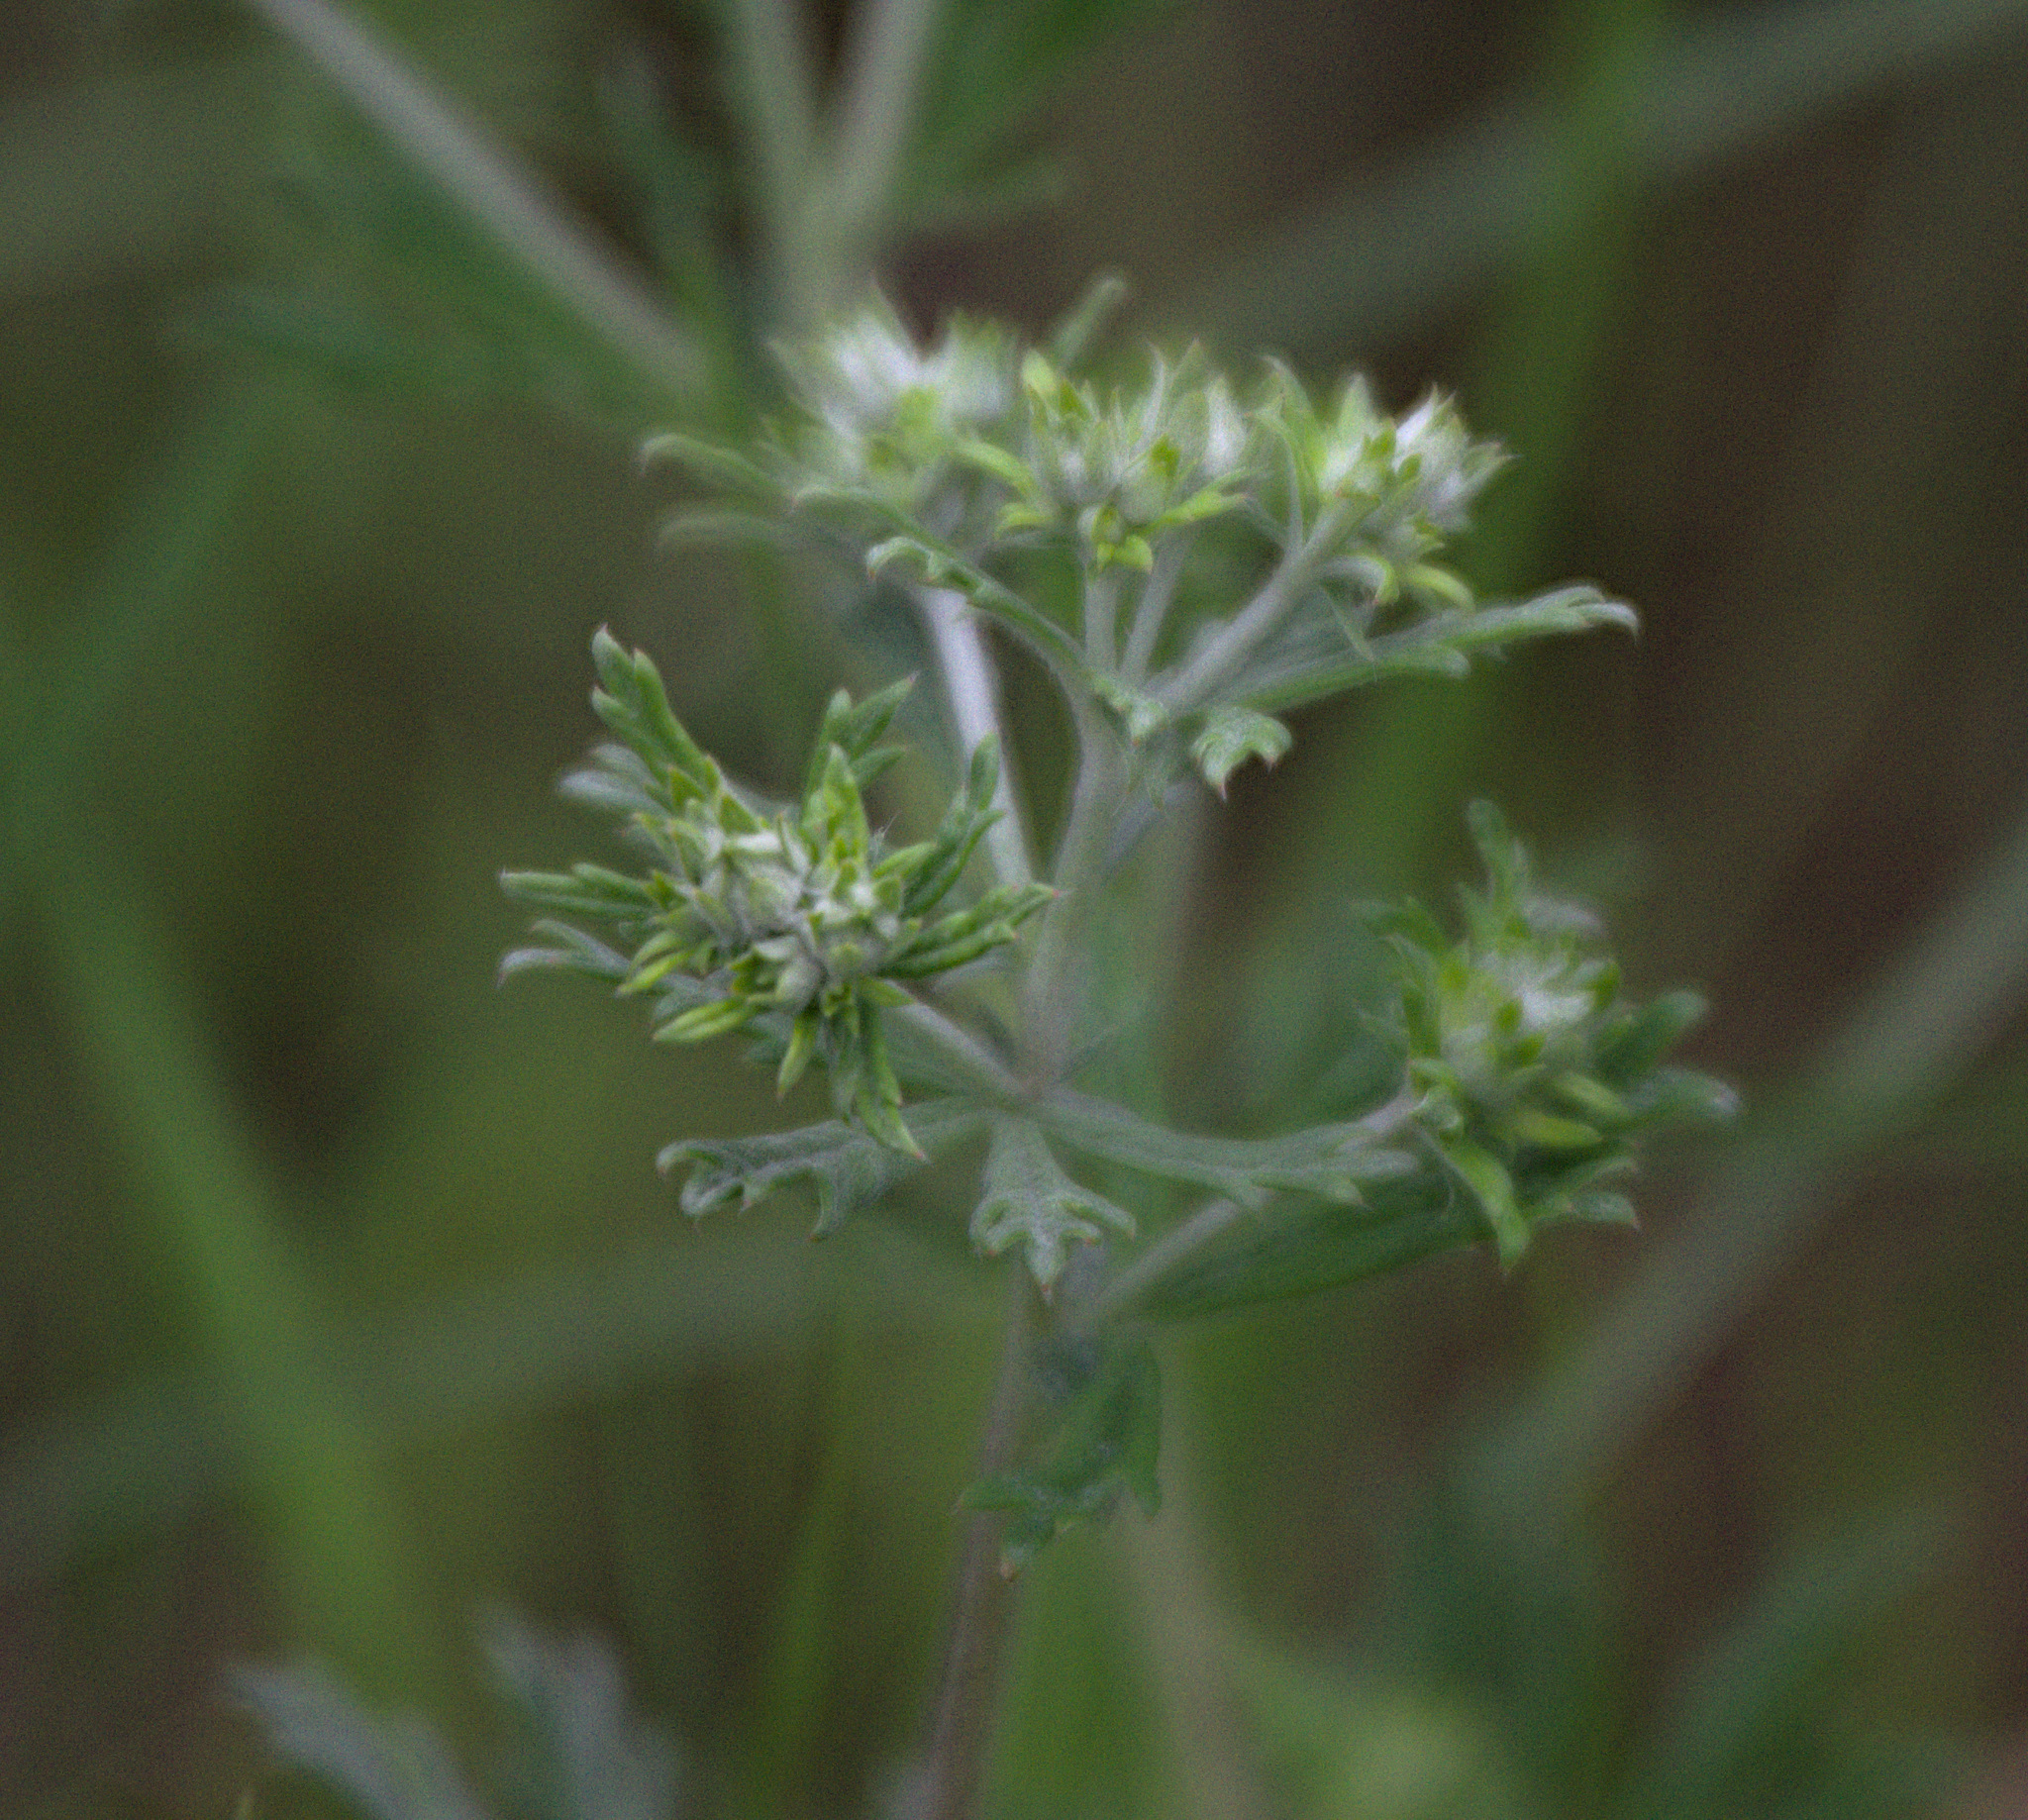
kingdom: Plantae
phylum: Tracheophyta
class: Magnoliopsida
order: Rosales
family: Rosaceae
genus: Potentilla
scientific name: Potentilla argentea
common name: Hoary cinquefoil
